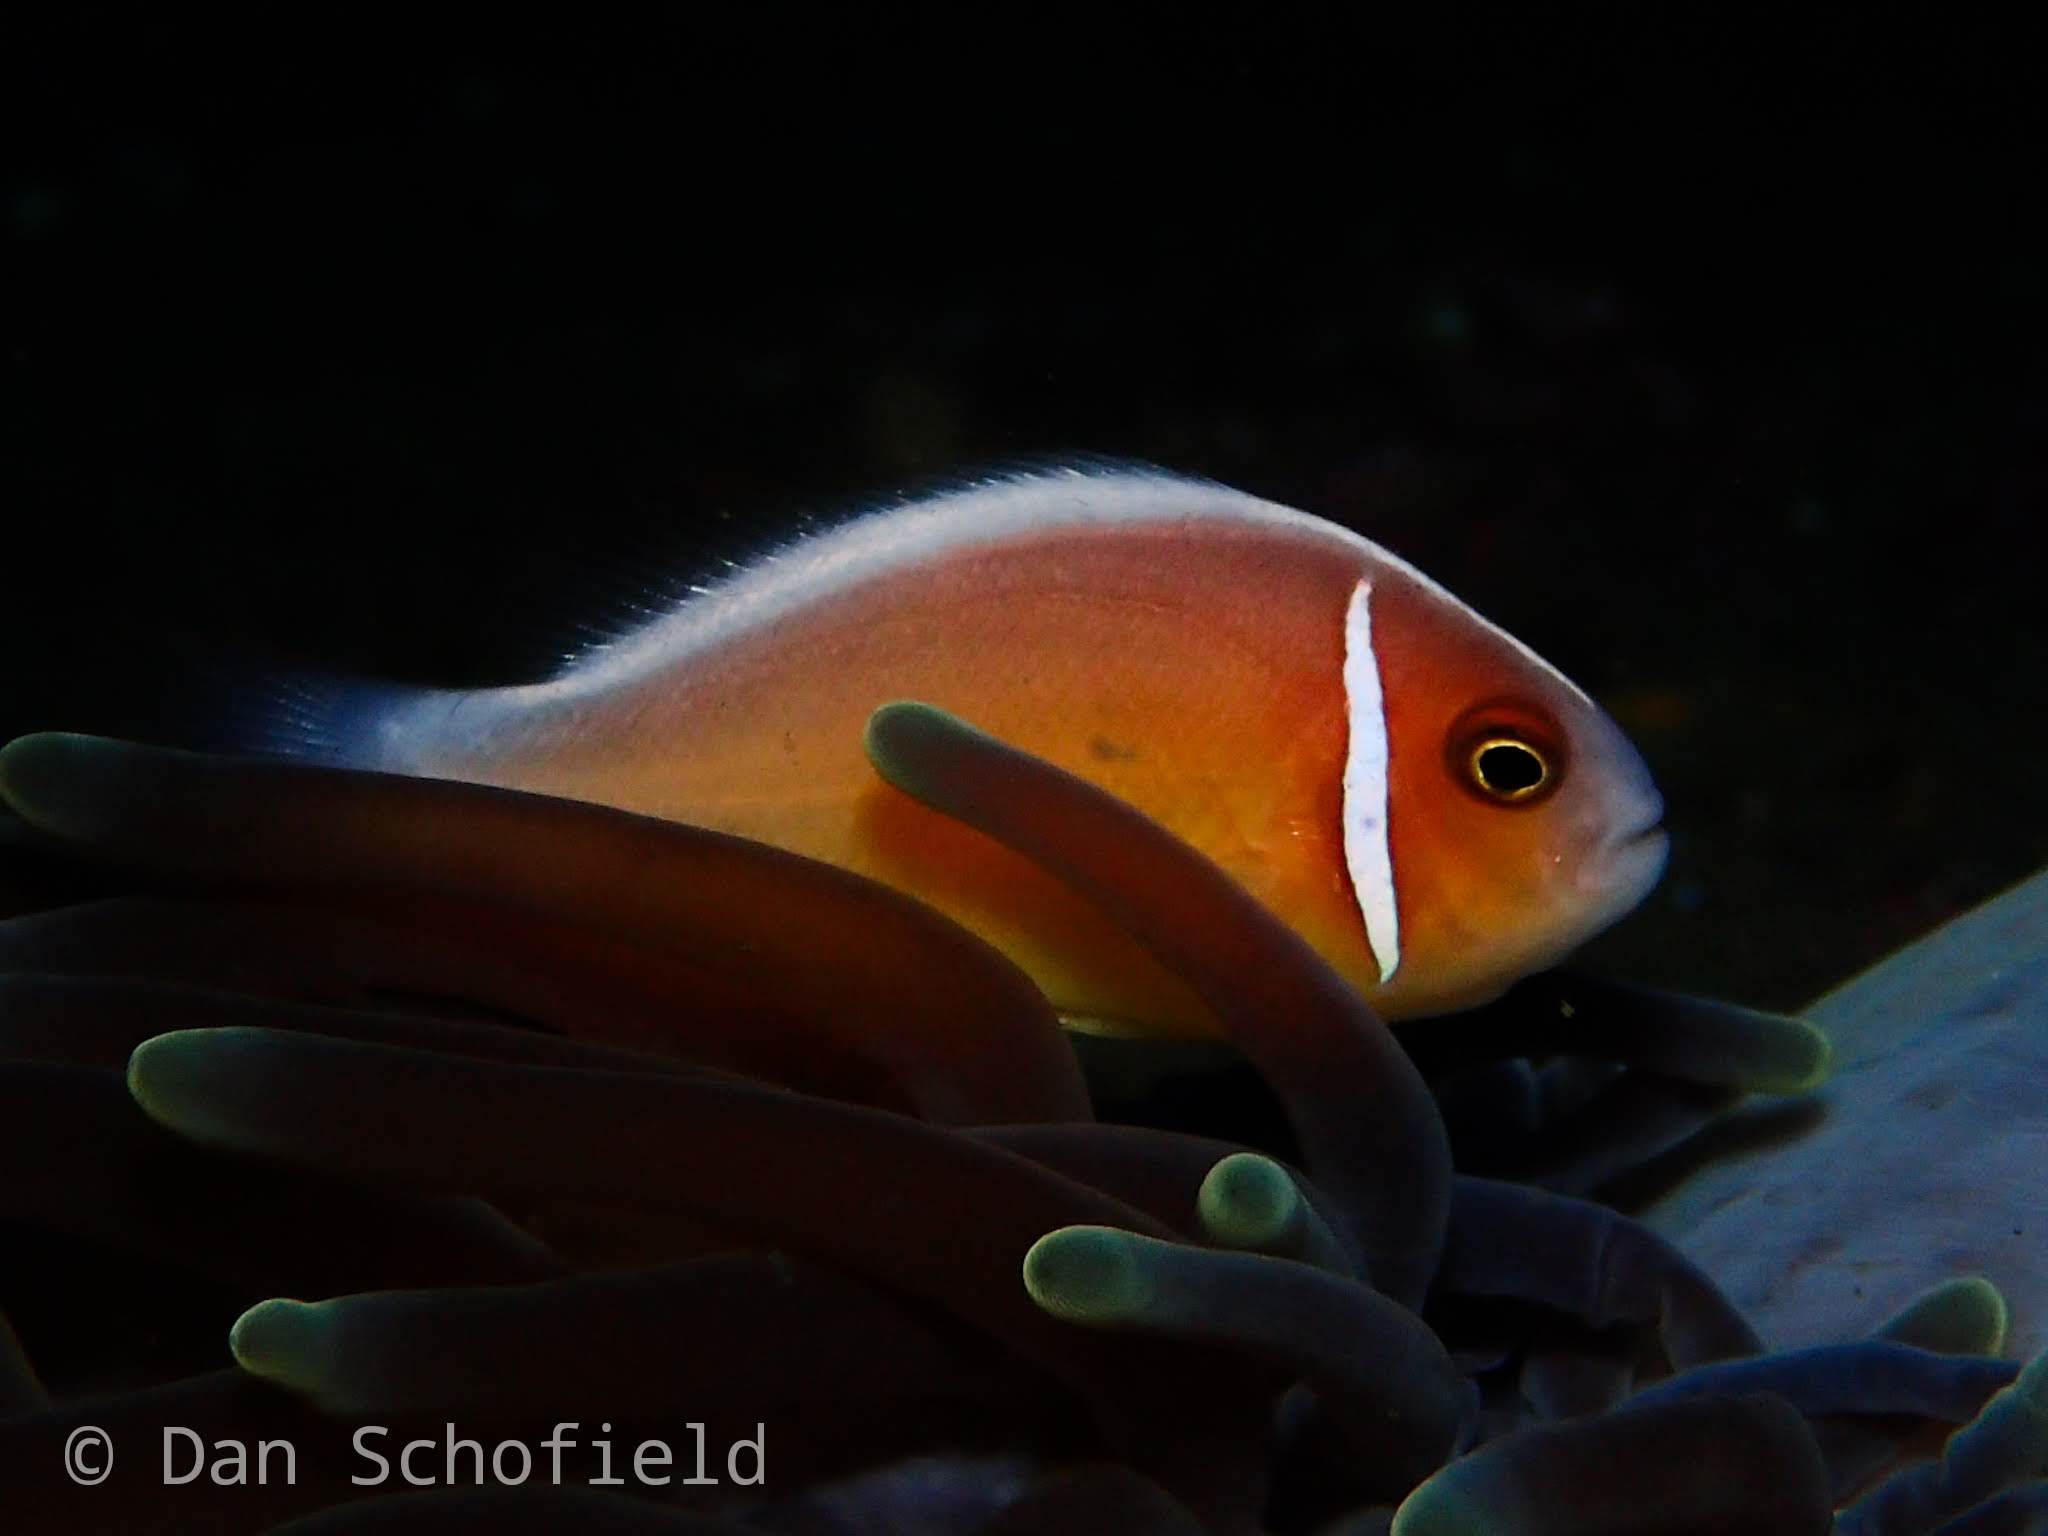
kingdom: Animalia
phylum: Chordata
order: Perciformes
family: Pomacentridae
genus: Amphiprion
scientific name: Amphiprion perideraion
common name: Pink anemonefish
